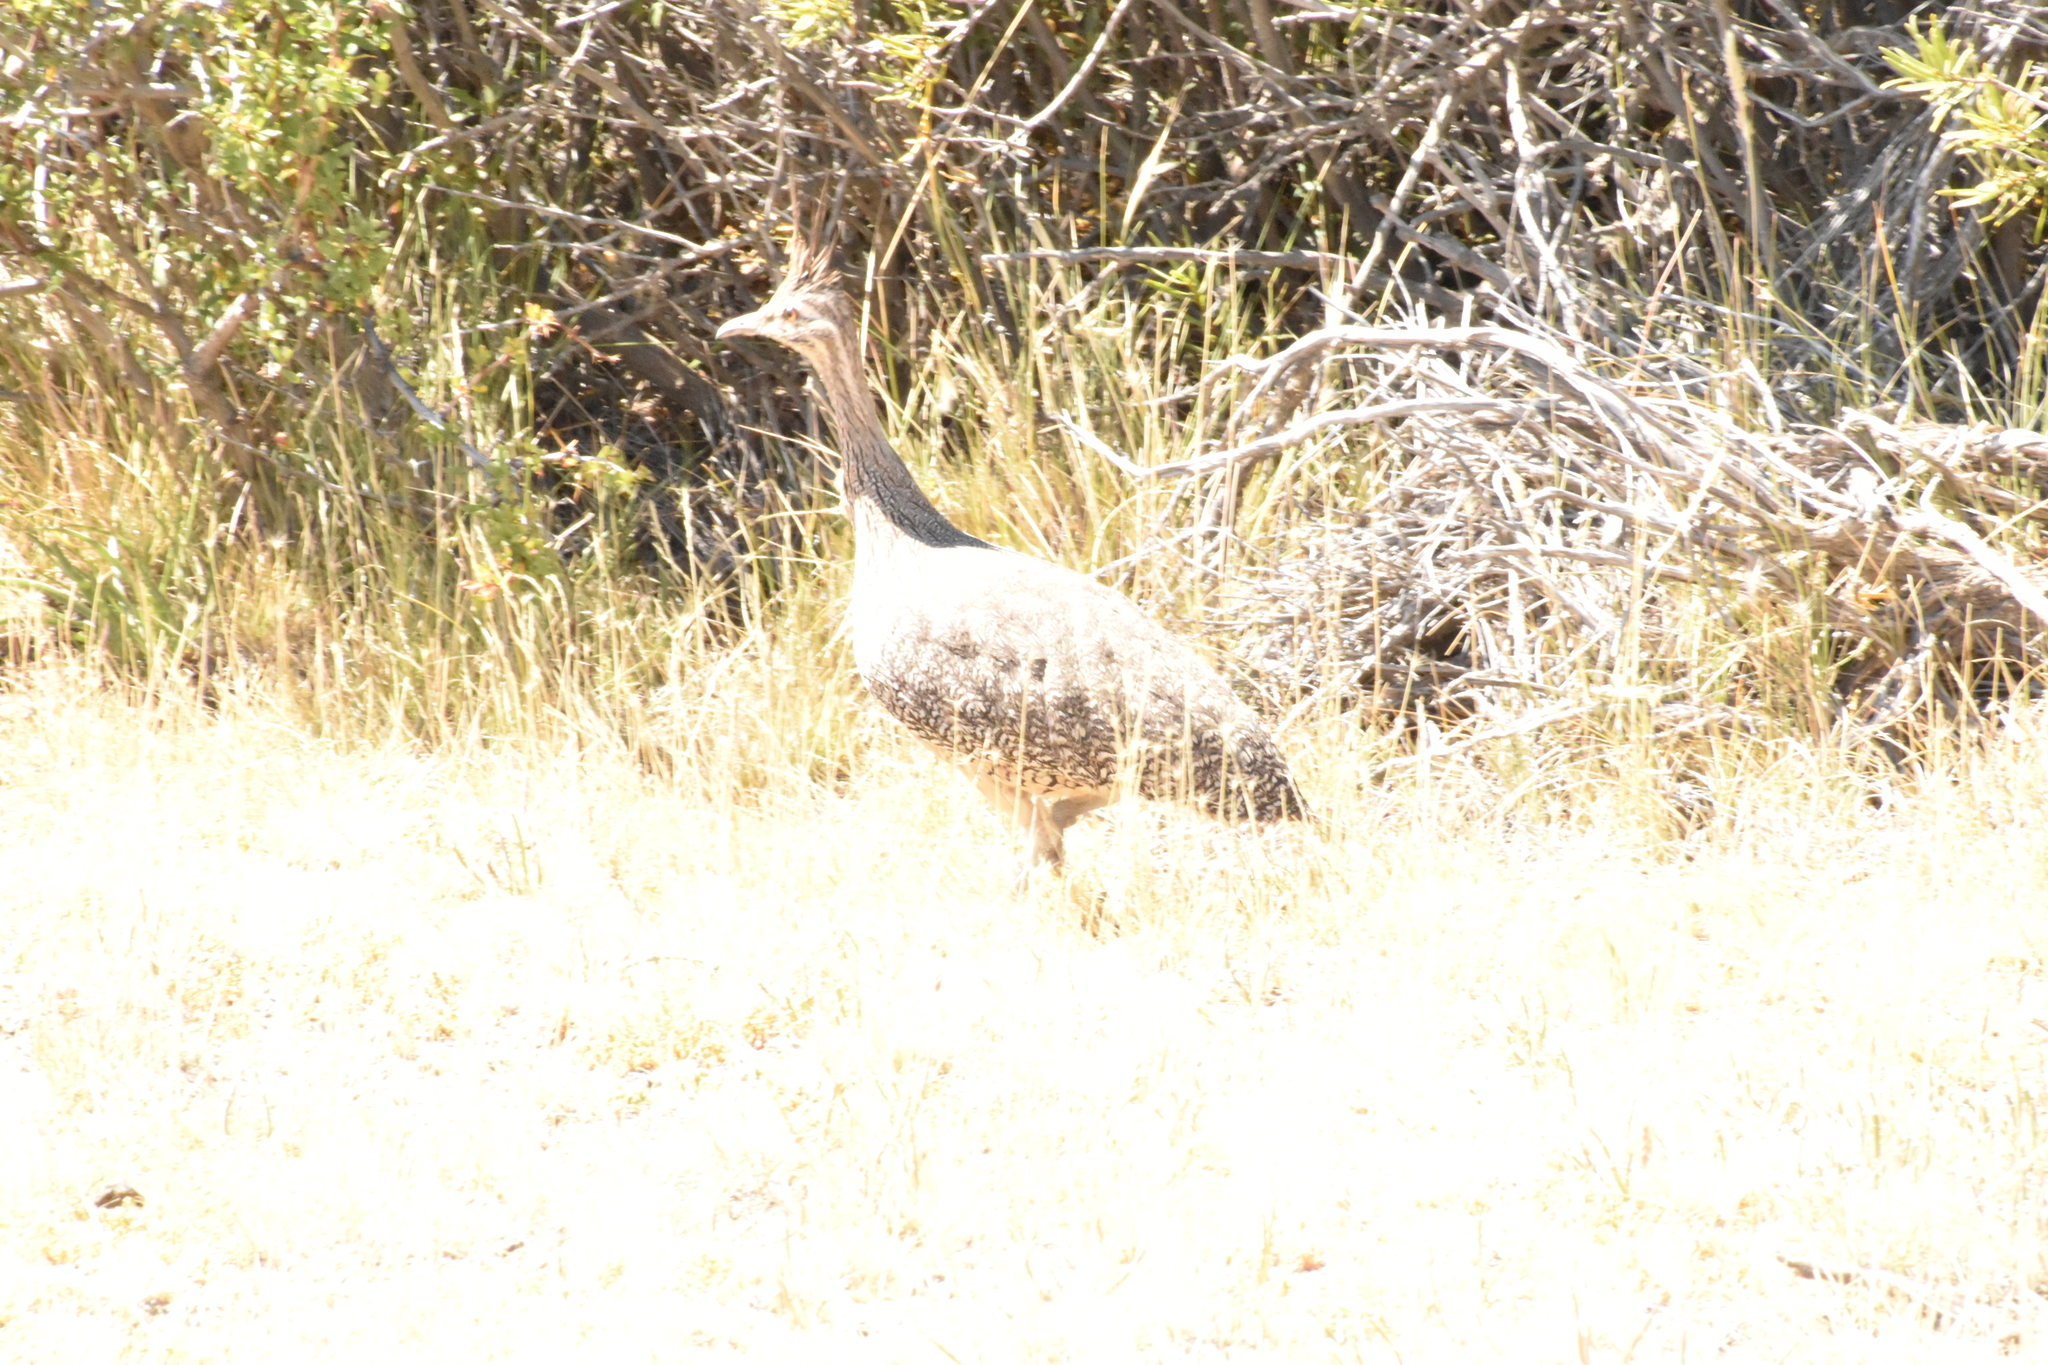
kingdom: Animalia
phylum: Chordata
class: Aves
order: Tinamiformes
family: Tinamidae
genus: Eudromia
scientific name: Eudromia elegans
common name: Elegant crested tinamou
